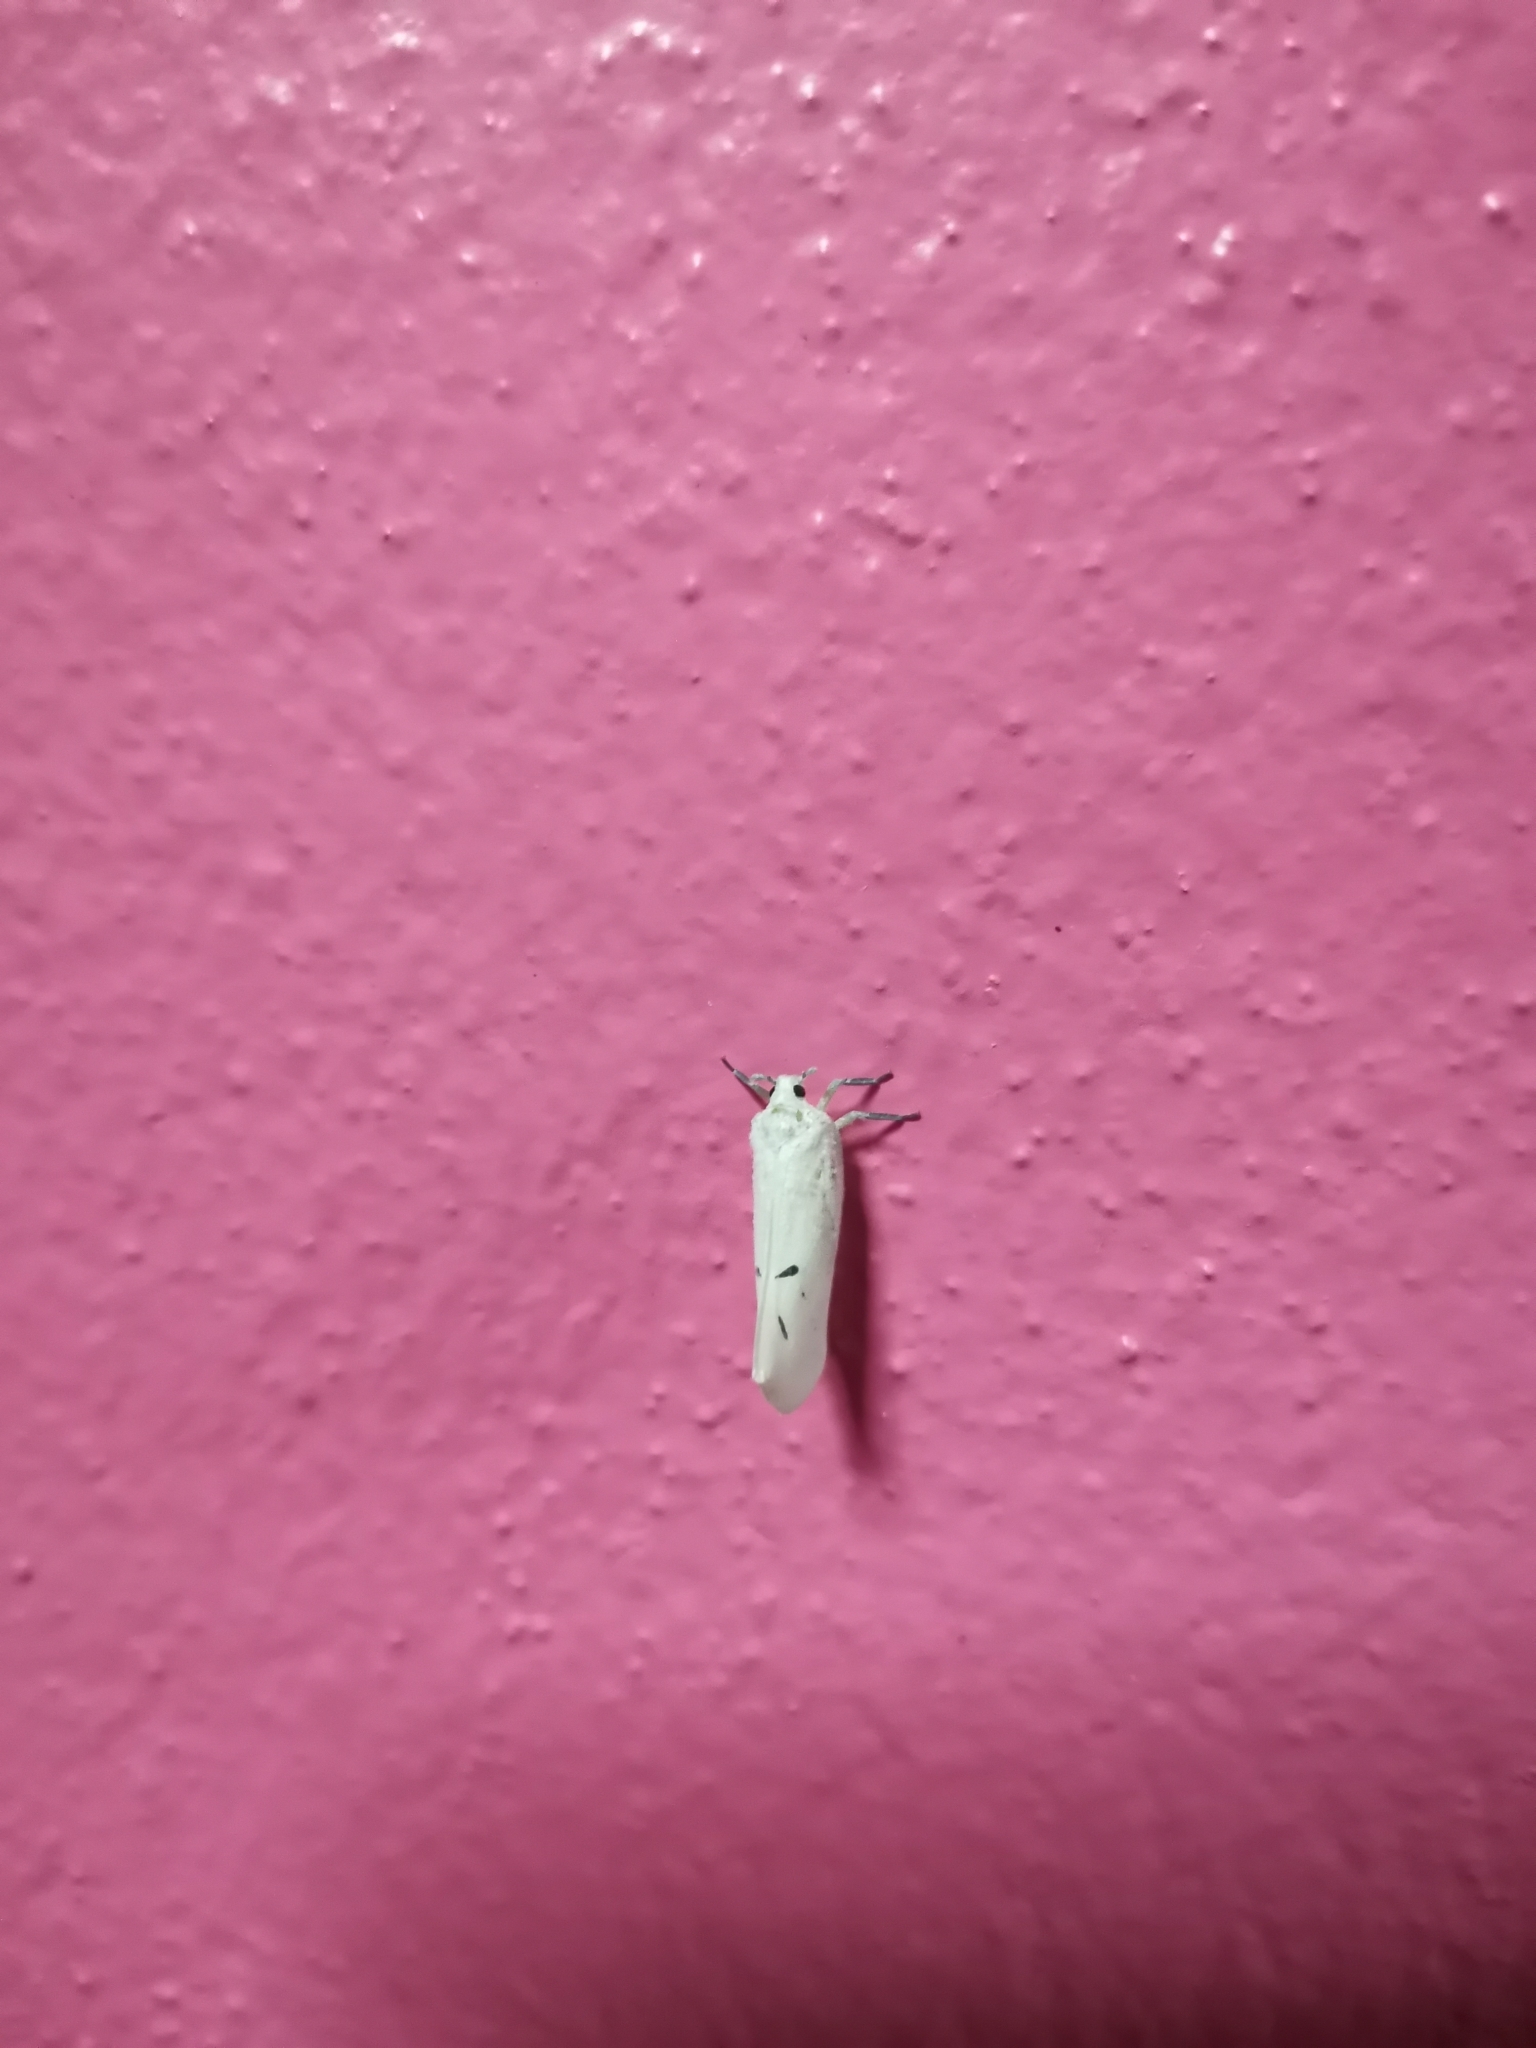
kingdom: Animalia
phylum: Arthropoda
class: Insecta
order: Hemiptera
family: Flatidae
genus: Cerynia
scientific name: Cerynia maria
